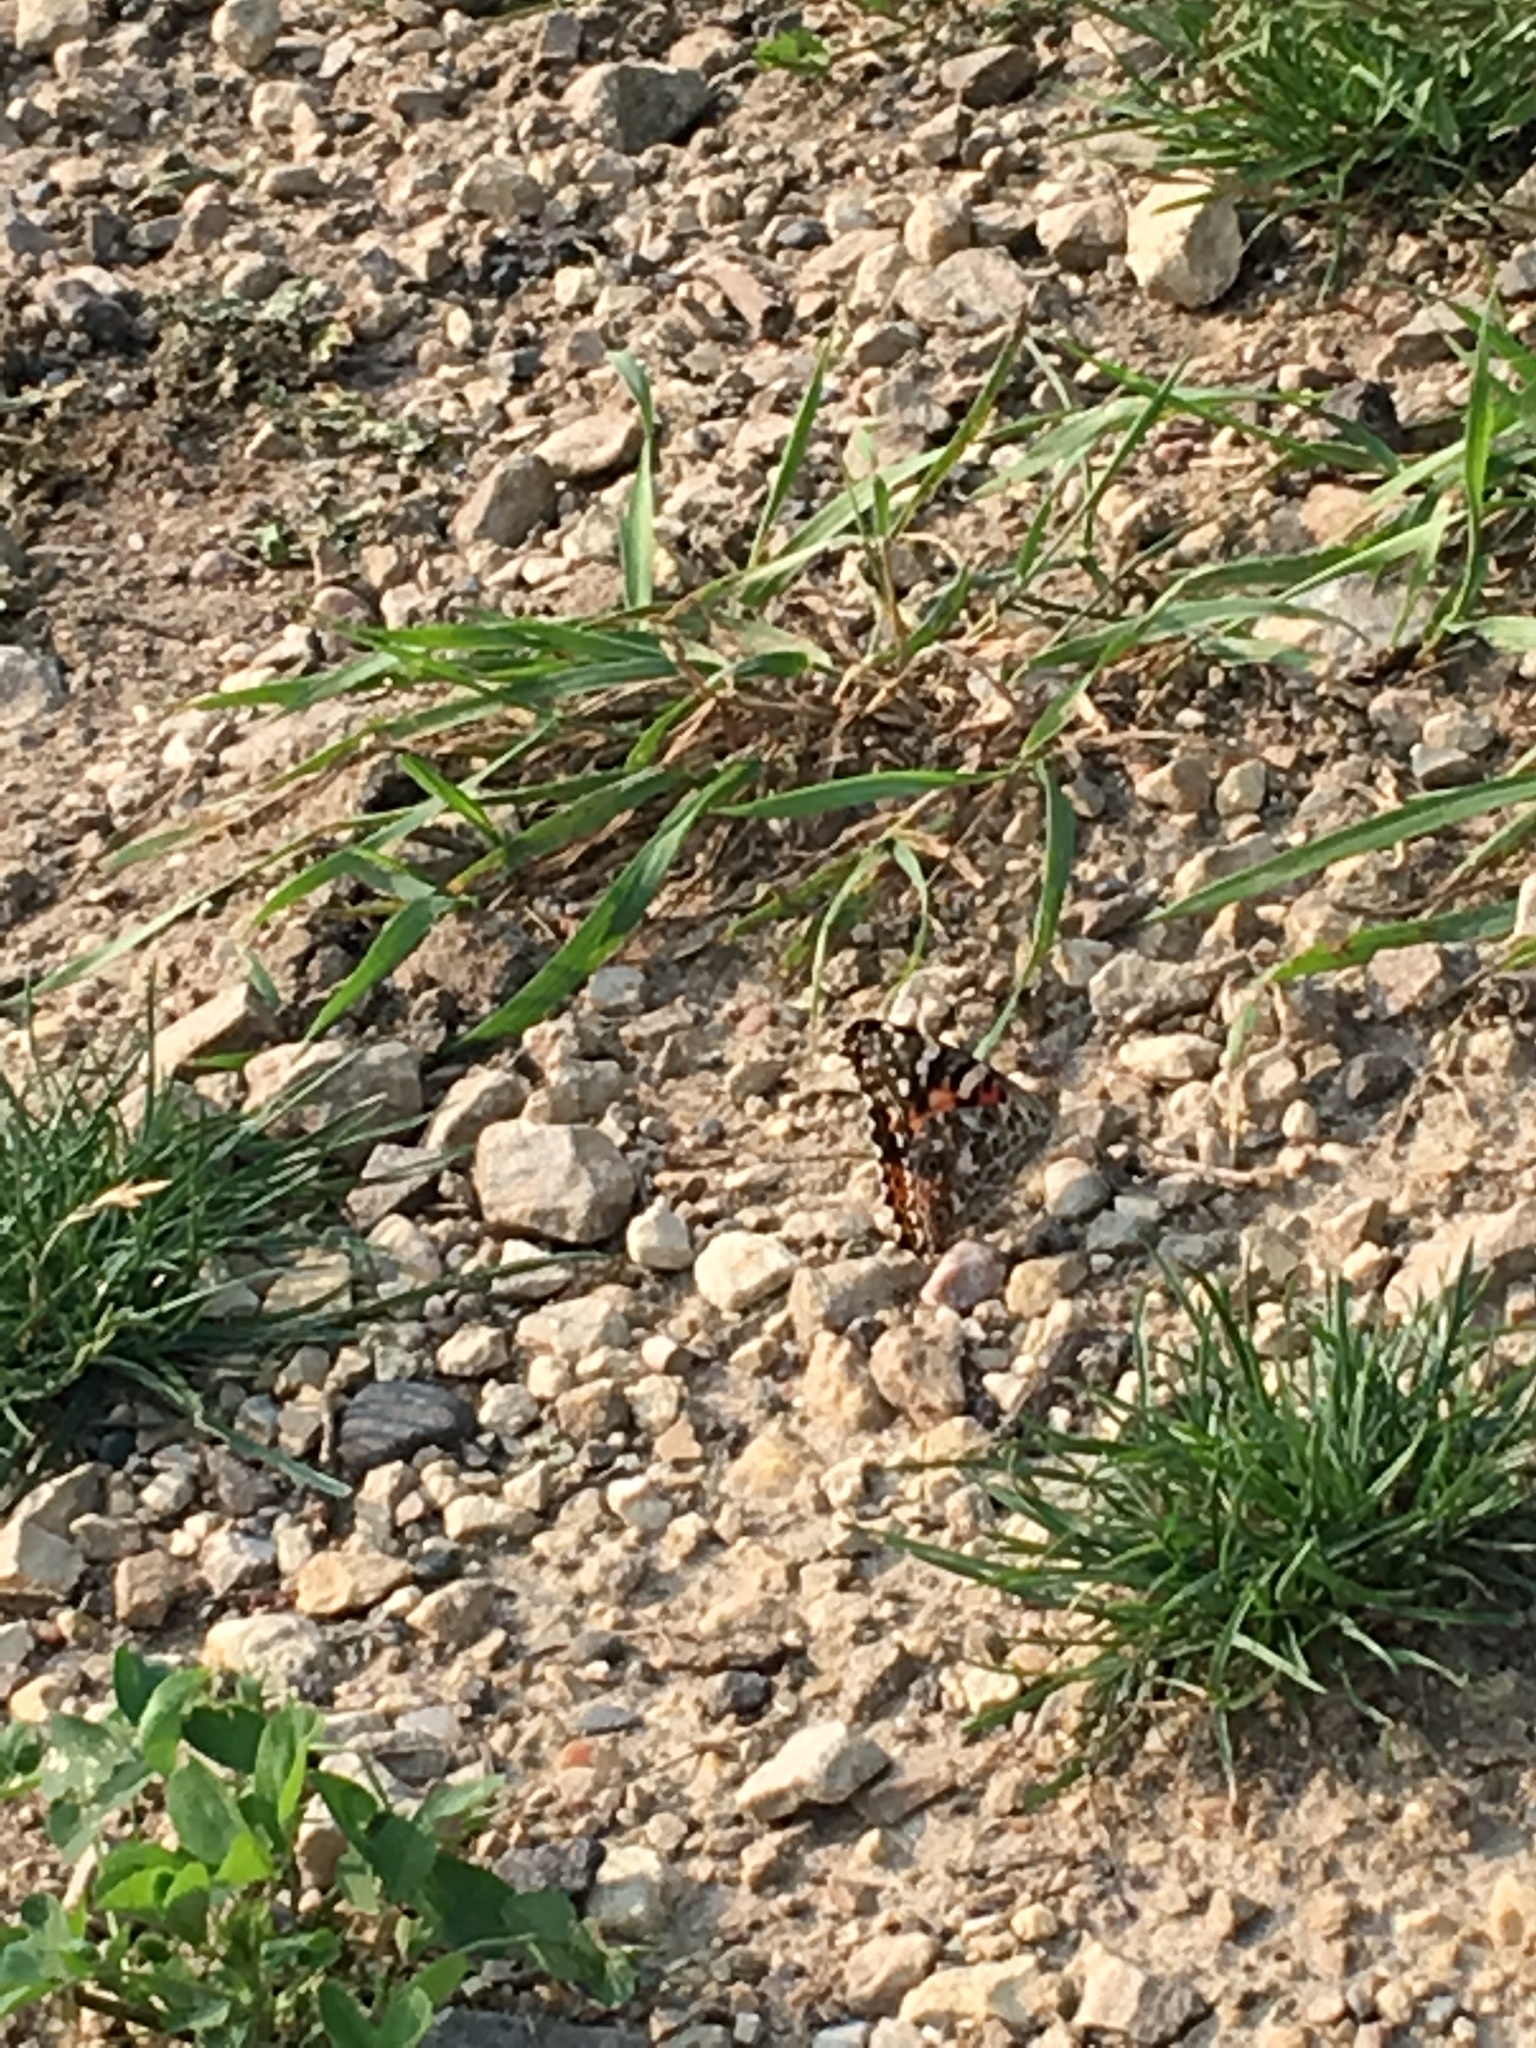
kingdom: Animalia
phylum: Arthropoda
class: Insecta
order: Lepidoptera
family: Nymphalidae
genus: Vanessa
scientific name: Vanessa cardui
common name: Painted lady
